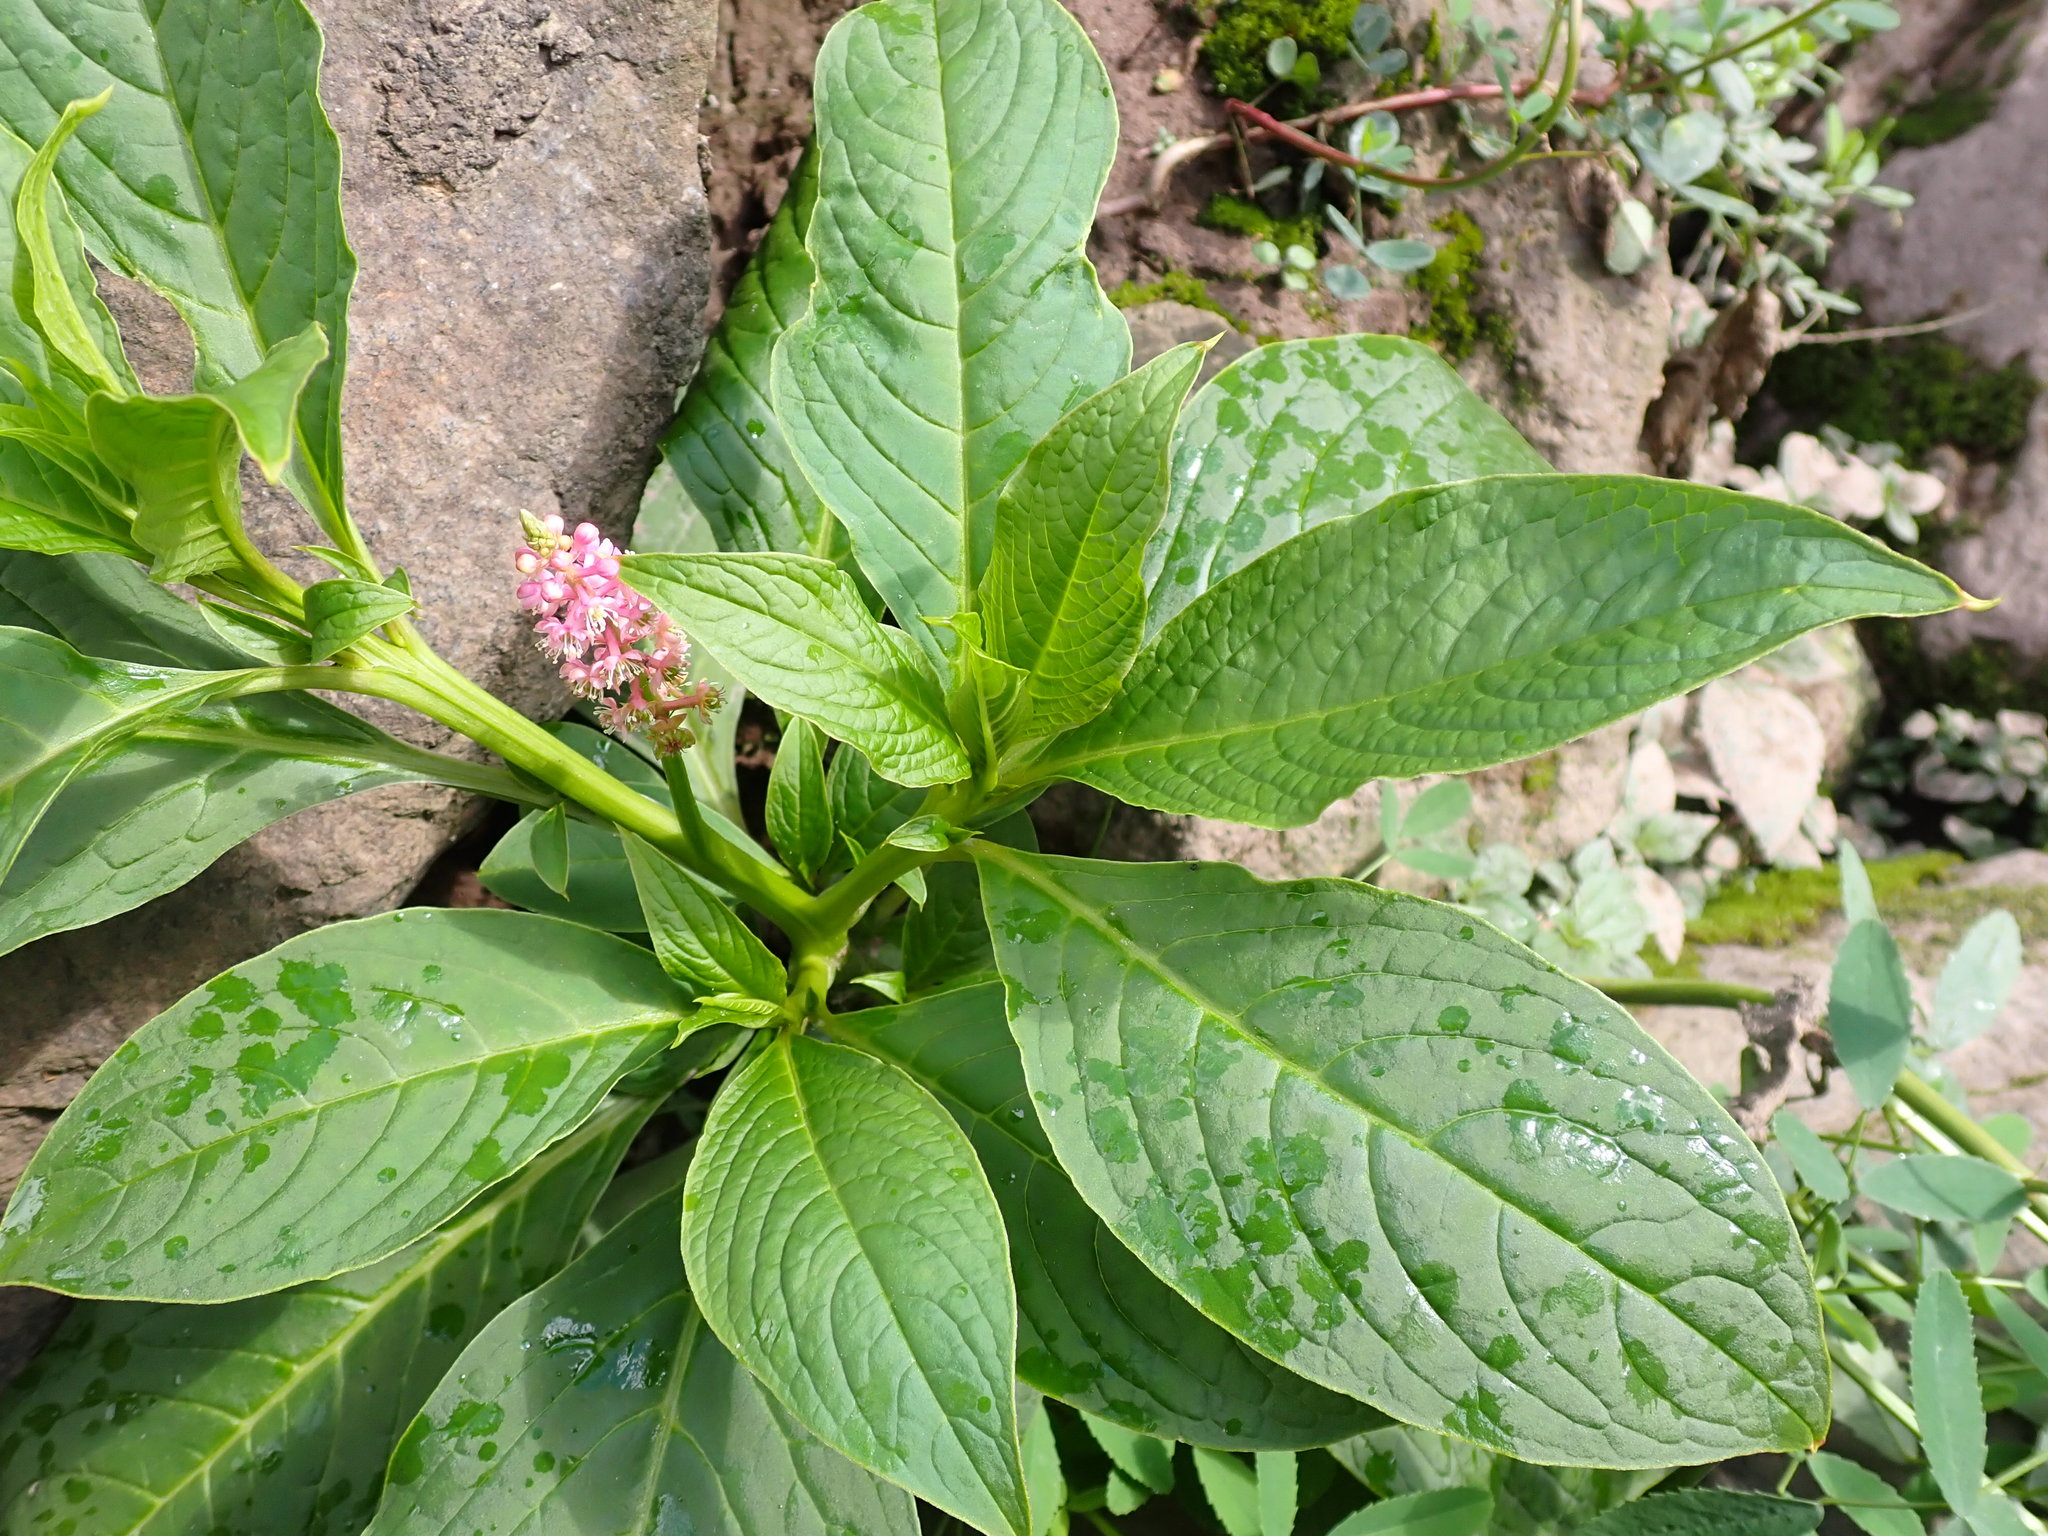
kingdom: Plantae
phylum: Tracheophyta
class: Magnoliopsida
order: Caryophyllales
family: Phytolaccaceae
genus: Phytolacca
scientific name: Phytolacca bogotensis
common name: Southern pokeweed
